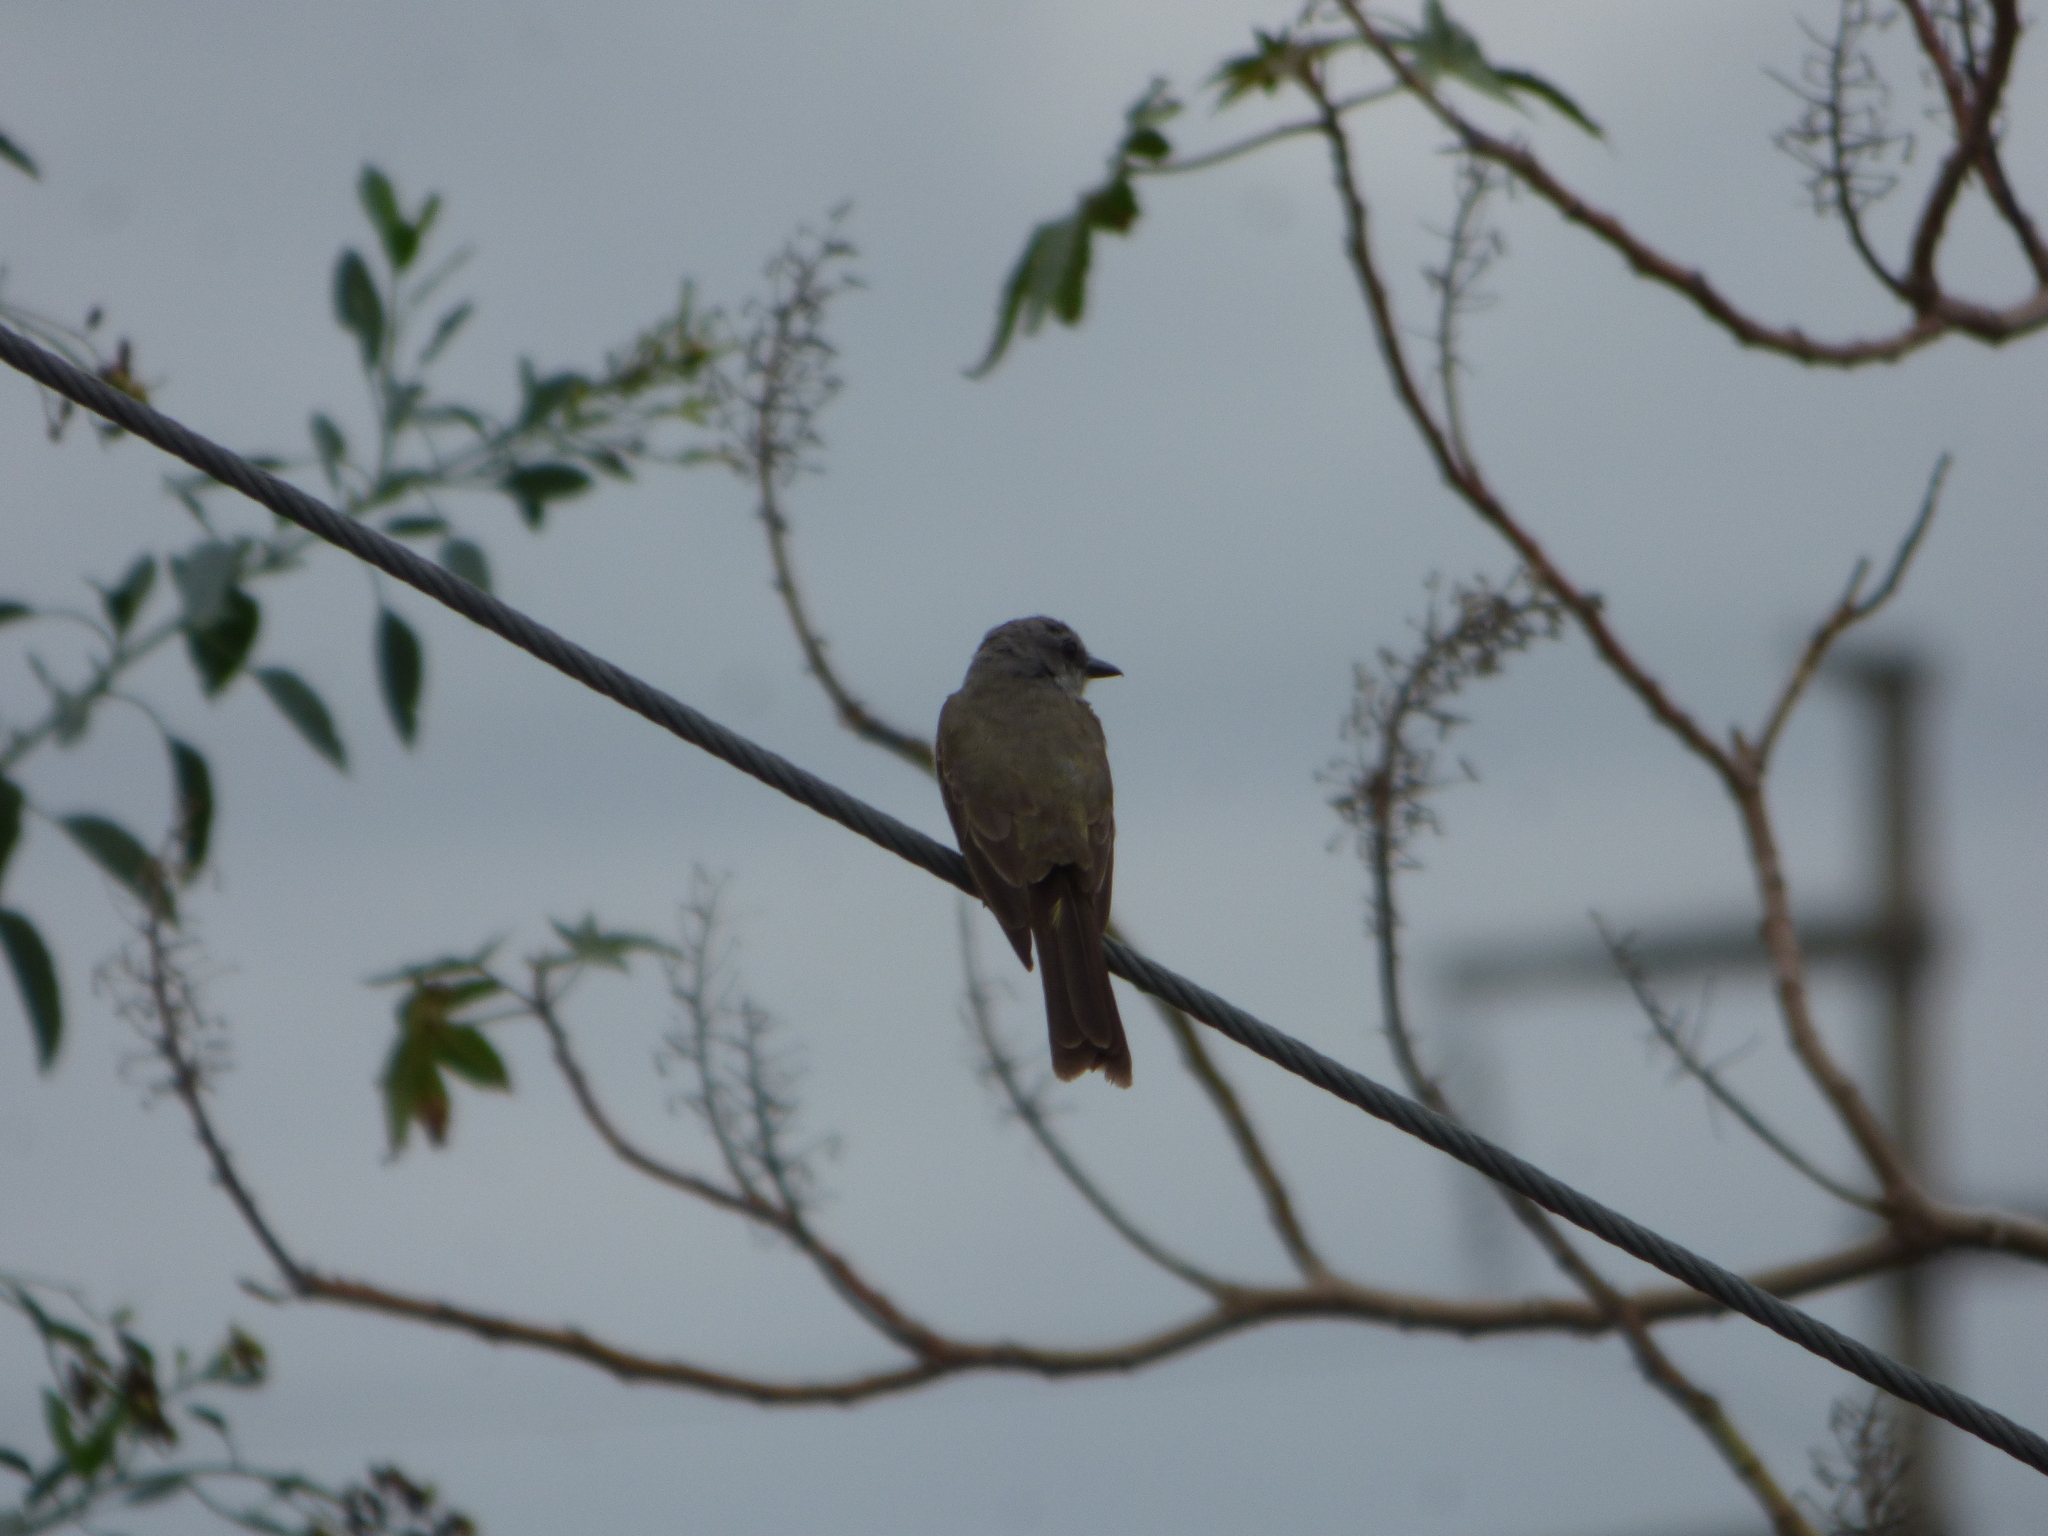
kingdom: Animalia
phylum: Chordata
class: Aves
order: Passeriformes
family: Tyrannidae
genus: Tyrannus
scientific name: Tyrannus melancholicus
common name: Tropical kingbird
